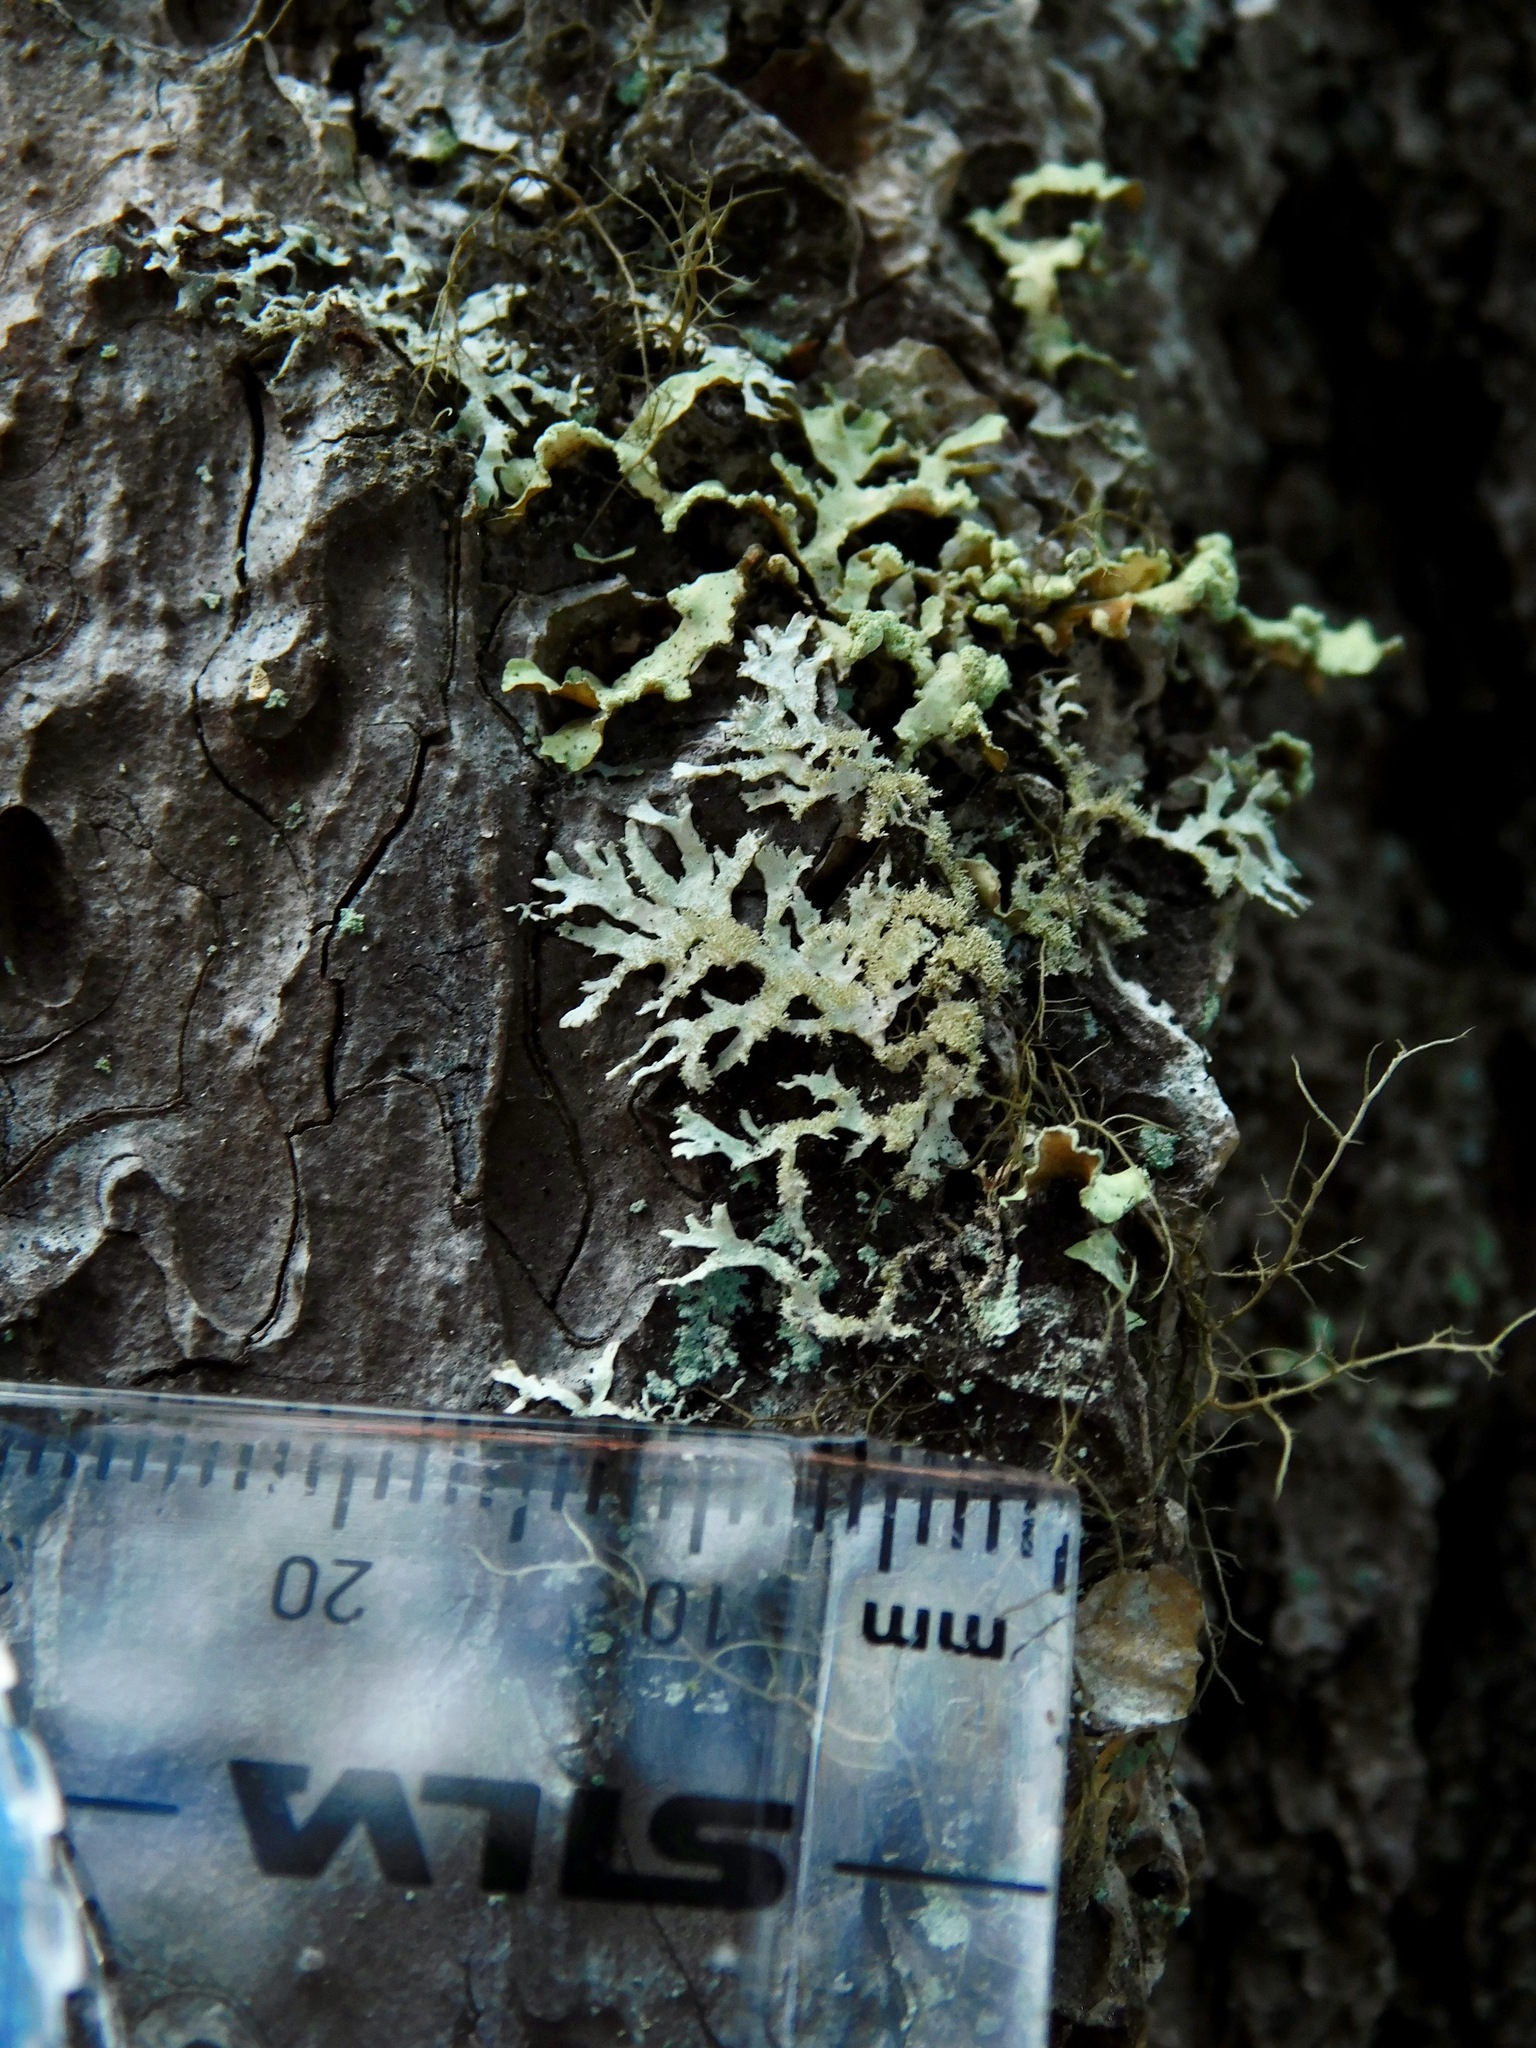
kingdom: Fungi
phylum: Ascomycota
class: Lecanoromycetes
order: Lecanorales
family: Parmeliaceae
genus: Imshaugia
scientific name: Imshaugia aleurites
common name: Salted starburst lichen
